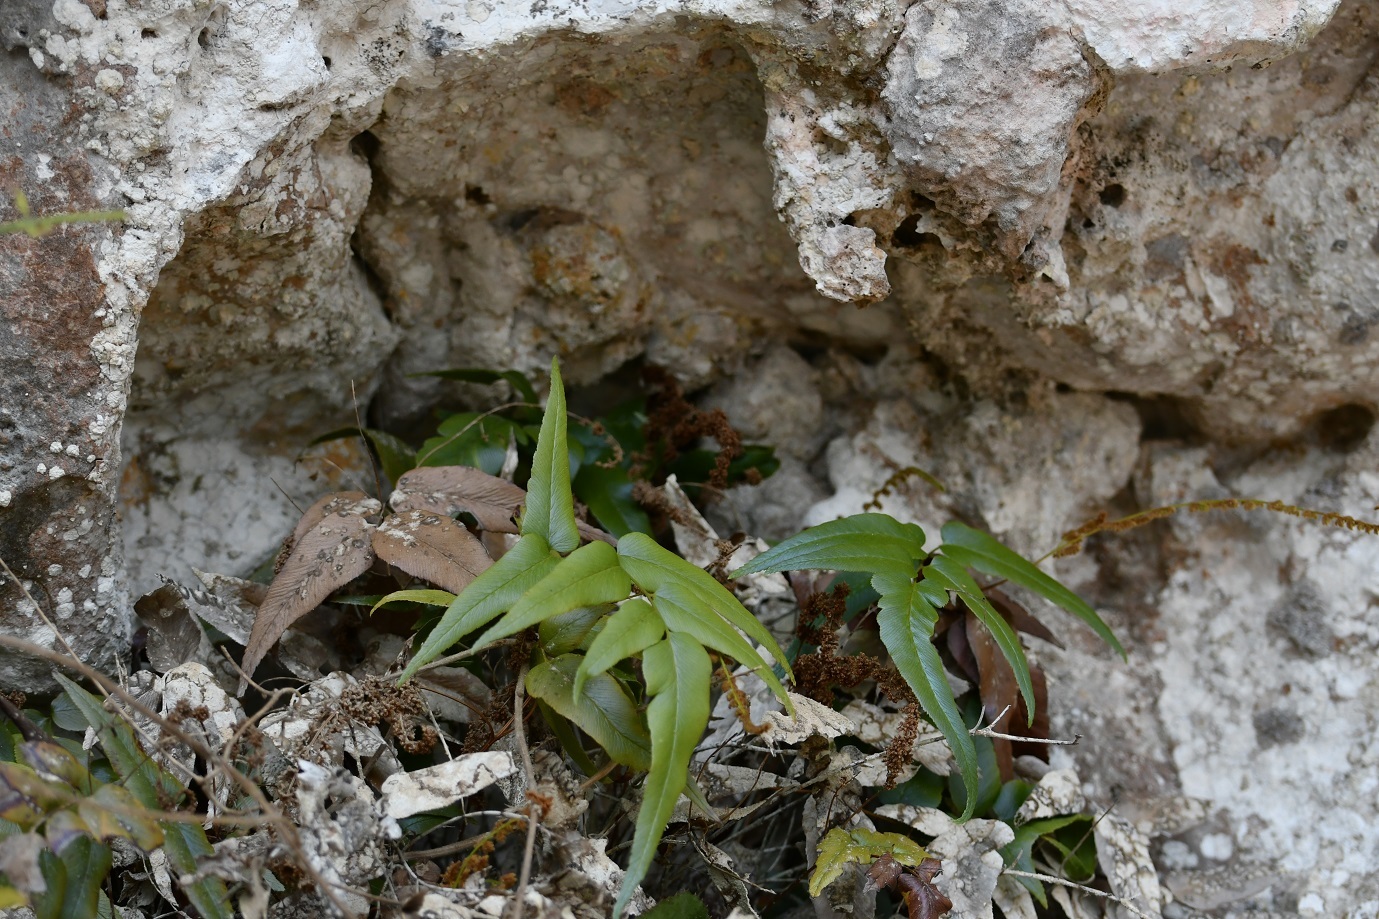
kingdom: Plantae
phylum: Tracheophyta
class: Polypodiopsida
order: Schizaeales
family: Anemiaceae
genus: Anemia
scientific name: Anemia speciosa
